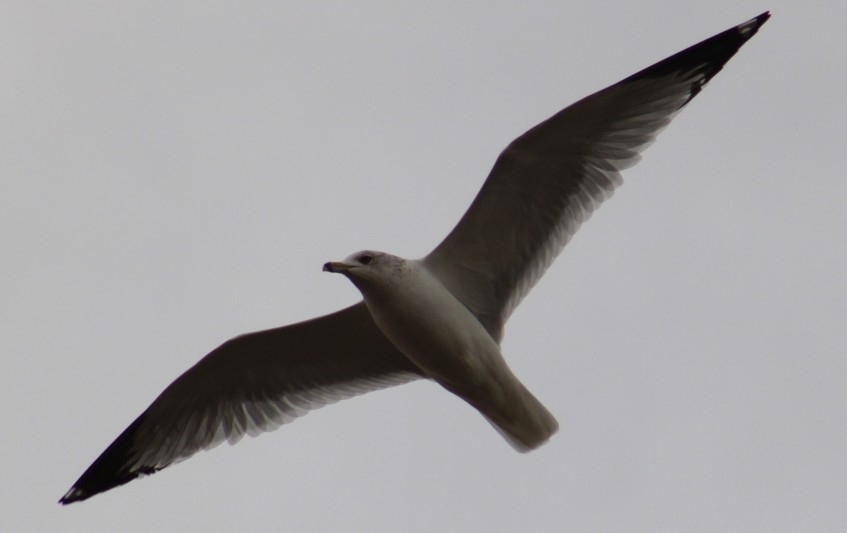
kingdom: Animalia
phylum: Chordata
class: Aves
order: Charadriiformes
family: Laridae
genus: Larus
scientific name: Larus delawarensis
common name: Ring-billed gull
